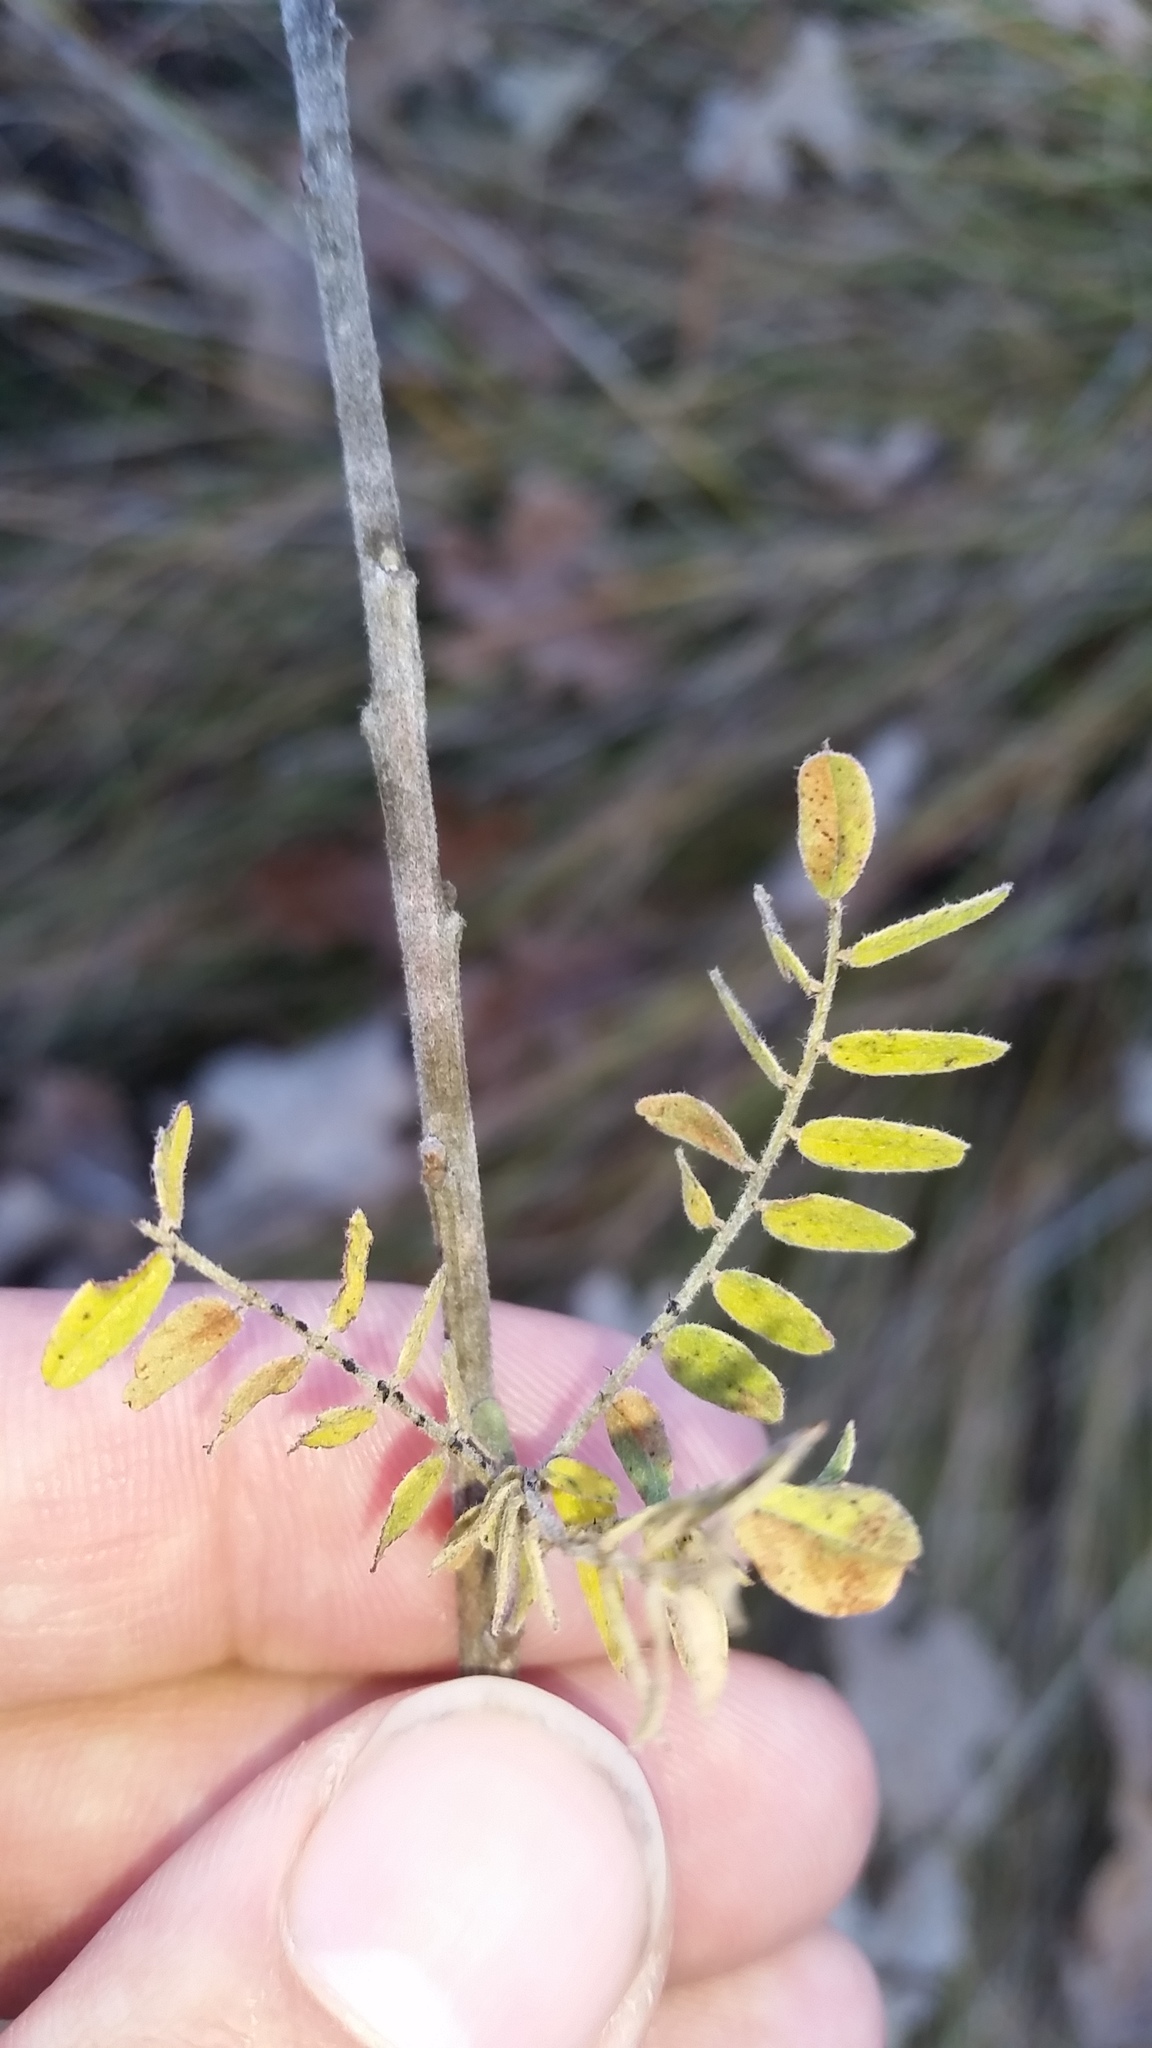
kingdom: Plantae
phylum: Tracheophyta
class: Magnoliopsida
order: Fabales
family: Fabaceae
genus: Amorpha
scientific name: Amorpha canescens
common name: Leadplant
